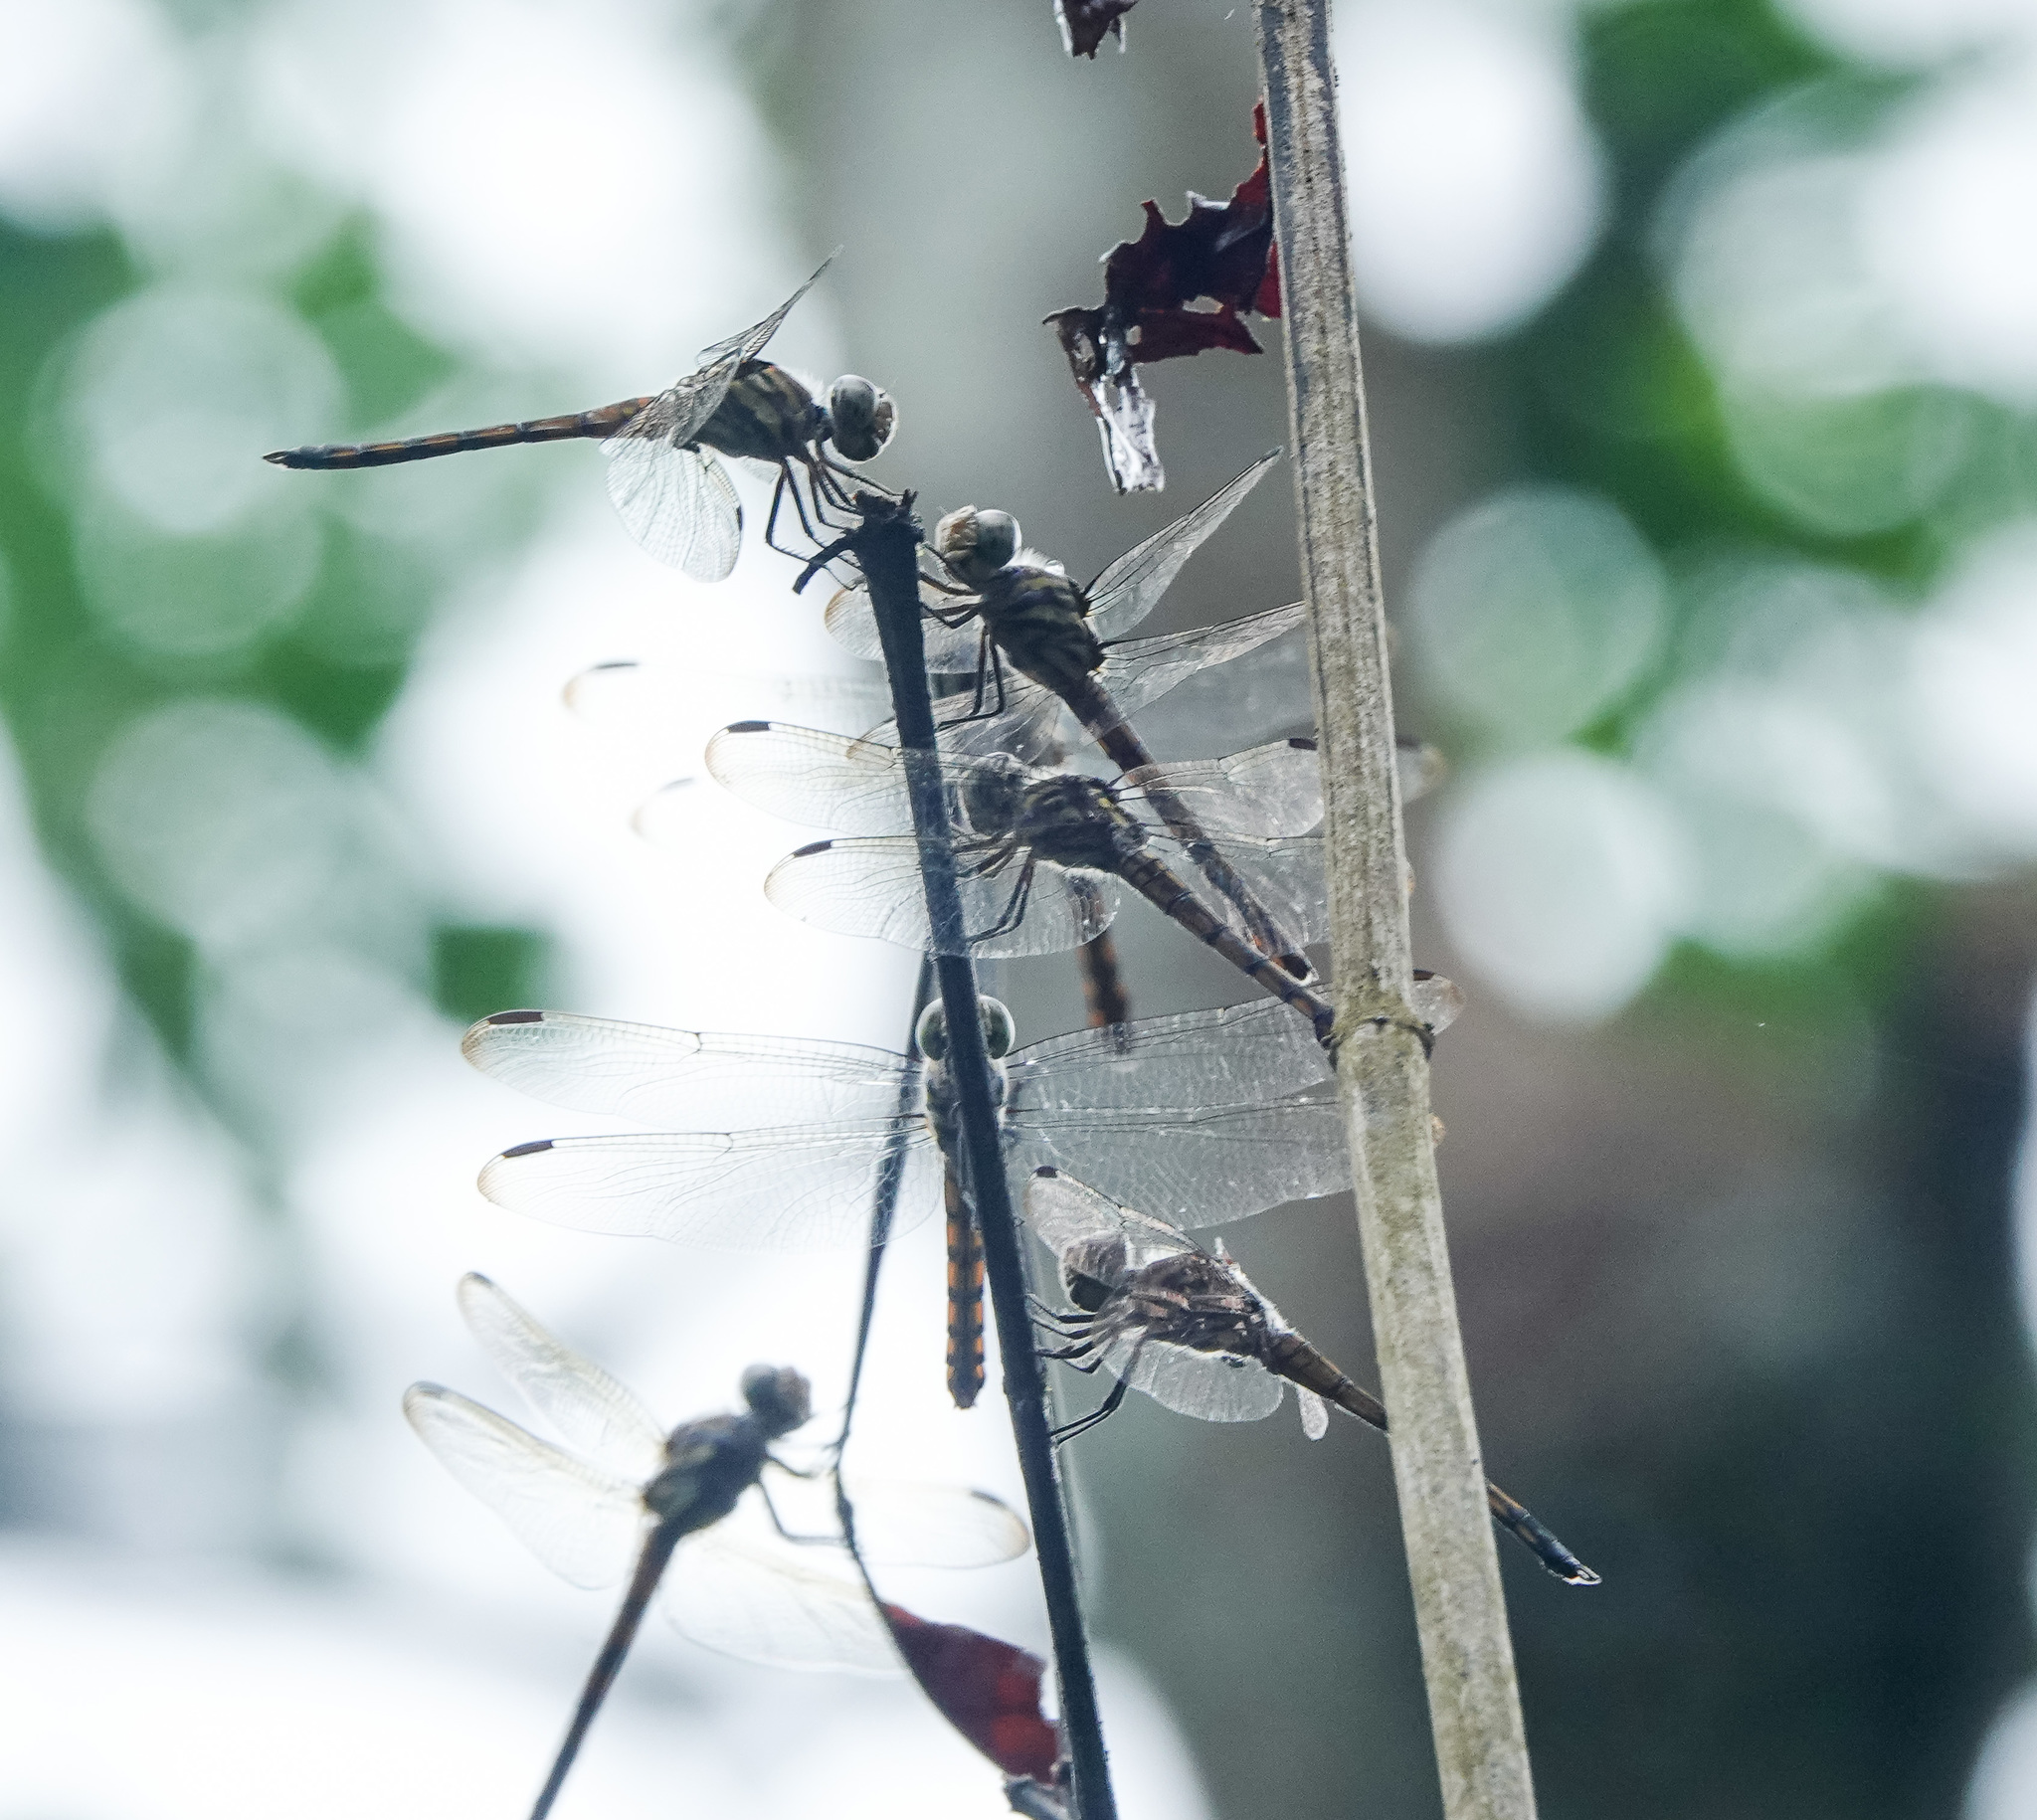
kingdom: Animalia
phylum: Arthropoda
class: Insecta
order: Odonata
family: Libellulidae
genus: Potamarcha
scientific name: Potamarcha congener
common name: Blue chaser
